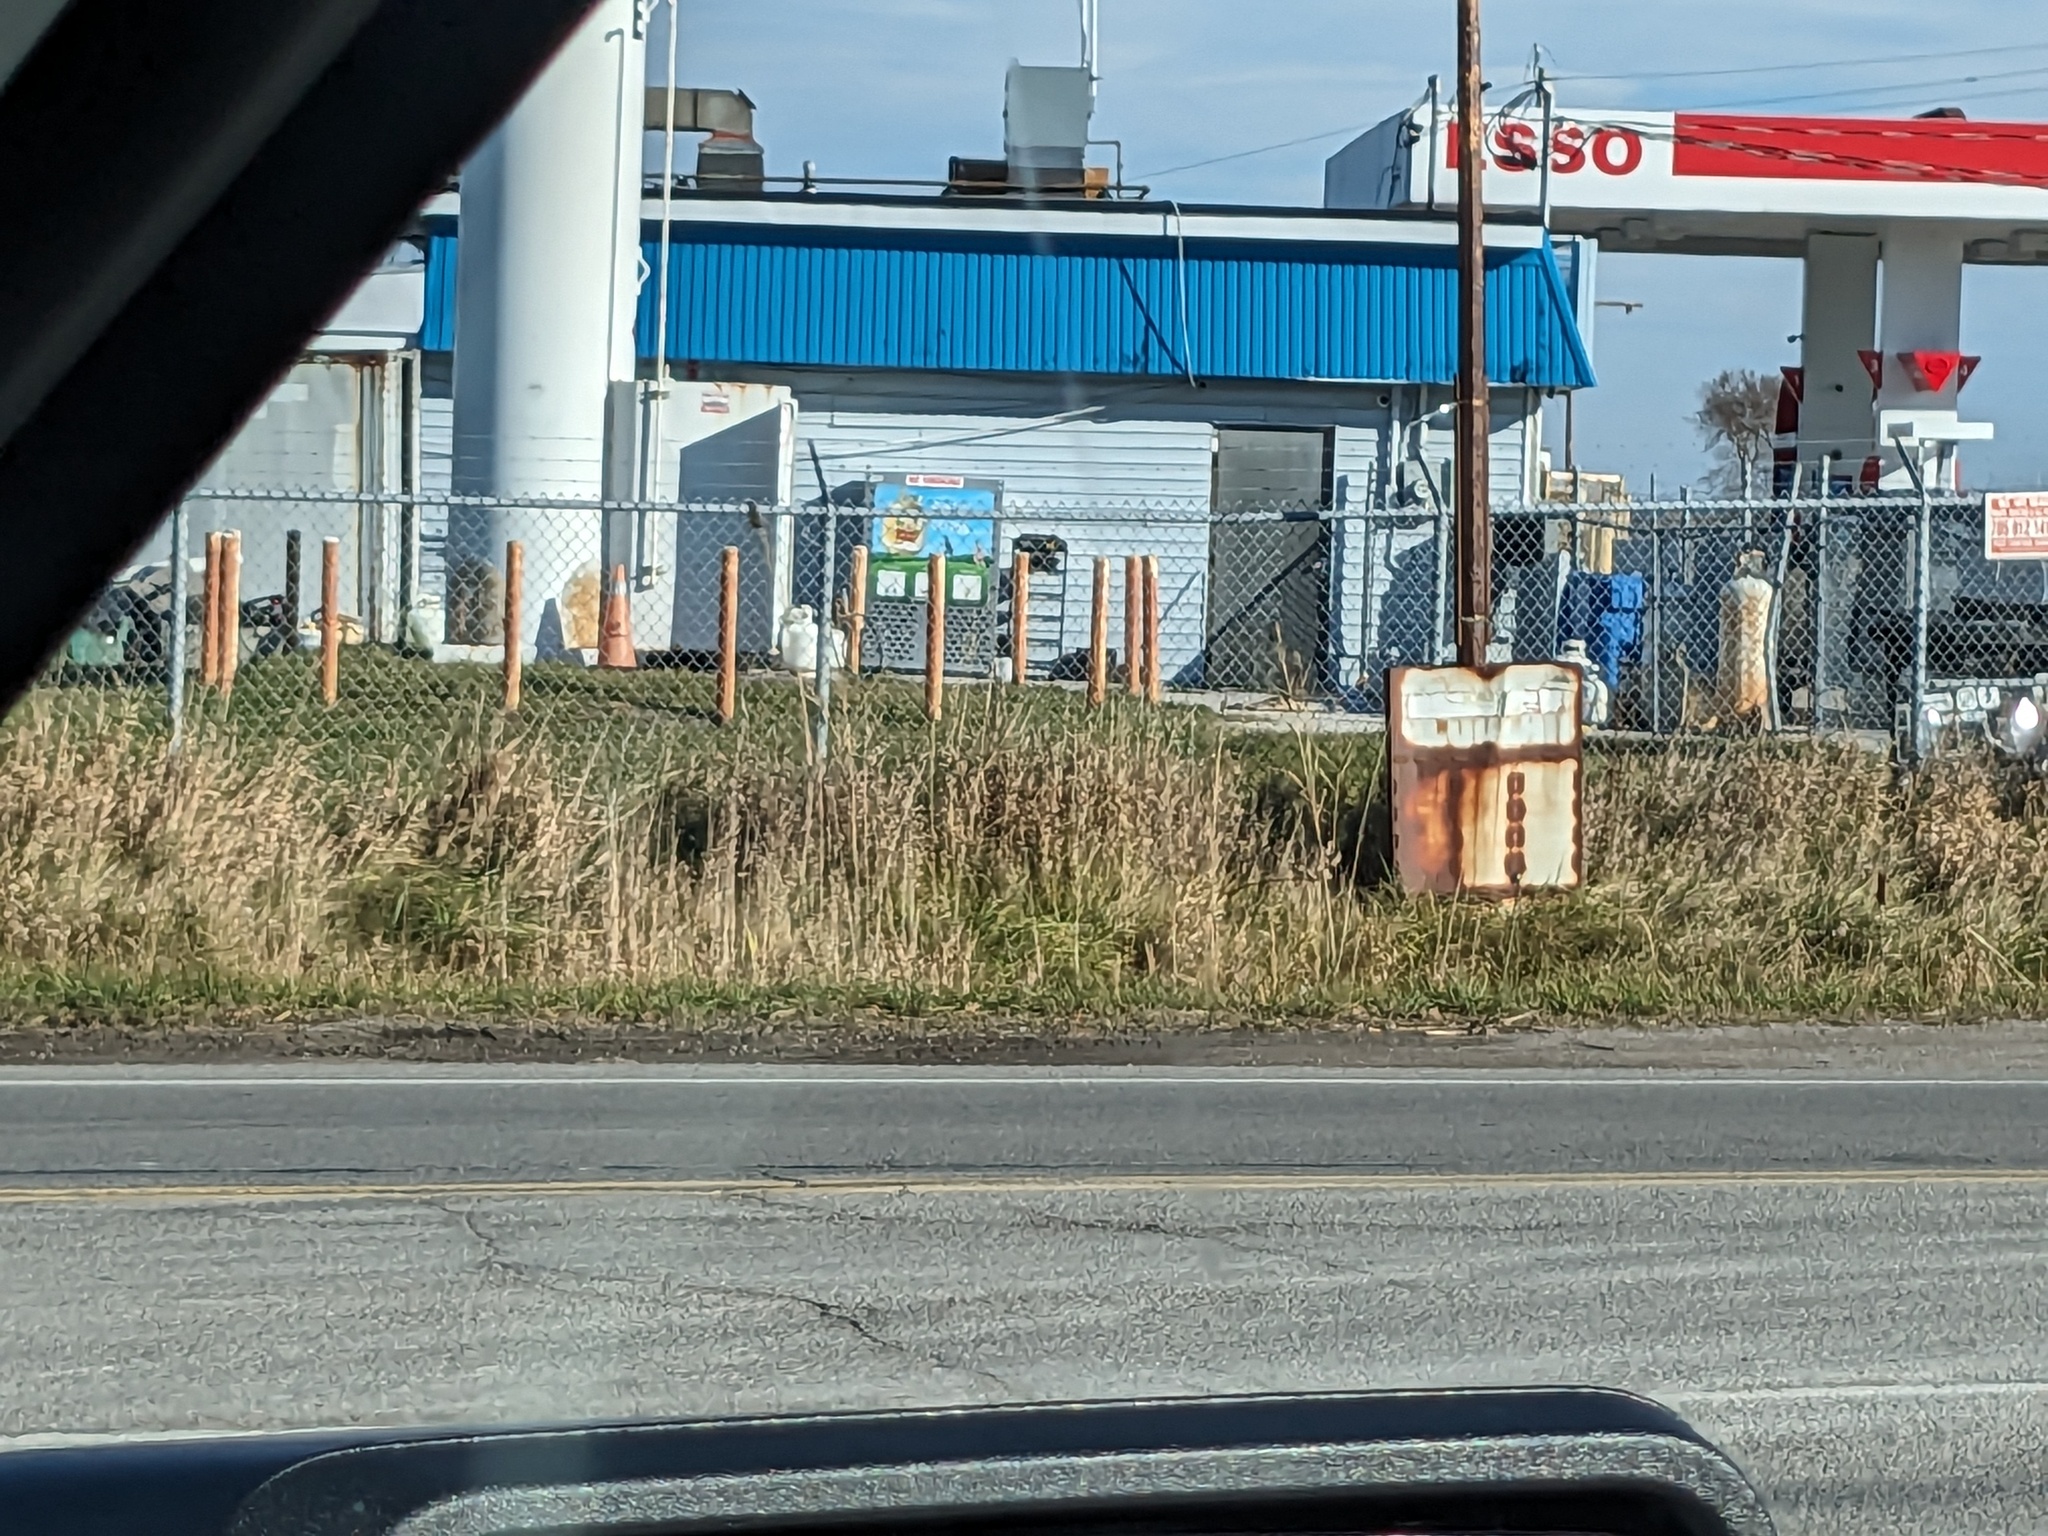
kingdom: Plantae
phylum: Tracheophyta
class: Liliopsida
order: Poales
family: Poaceae
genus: Phragmites
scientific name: Phragmites australis
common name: Common reed
